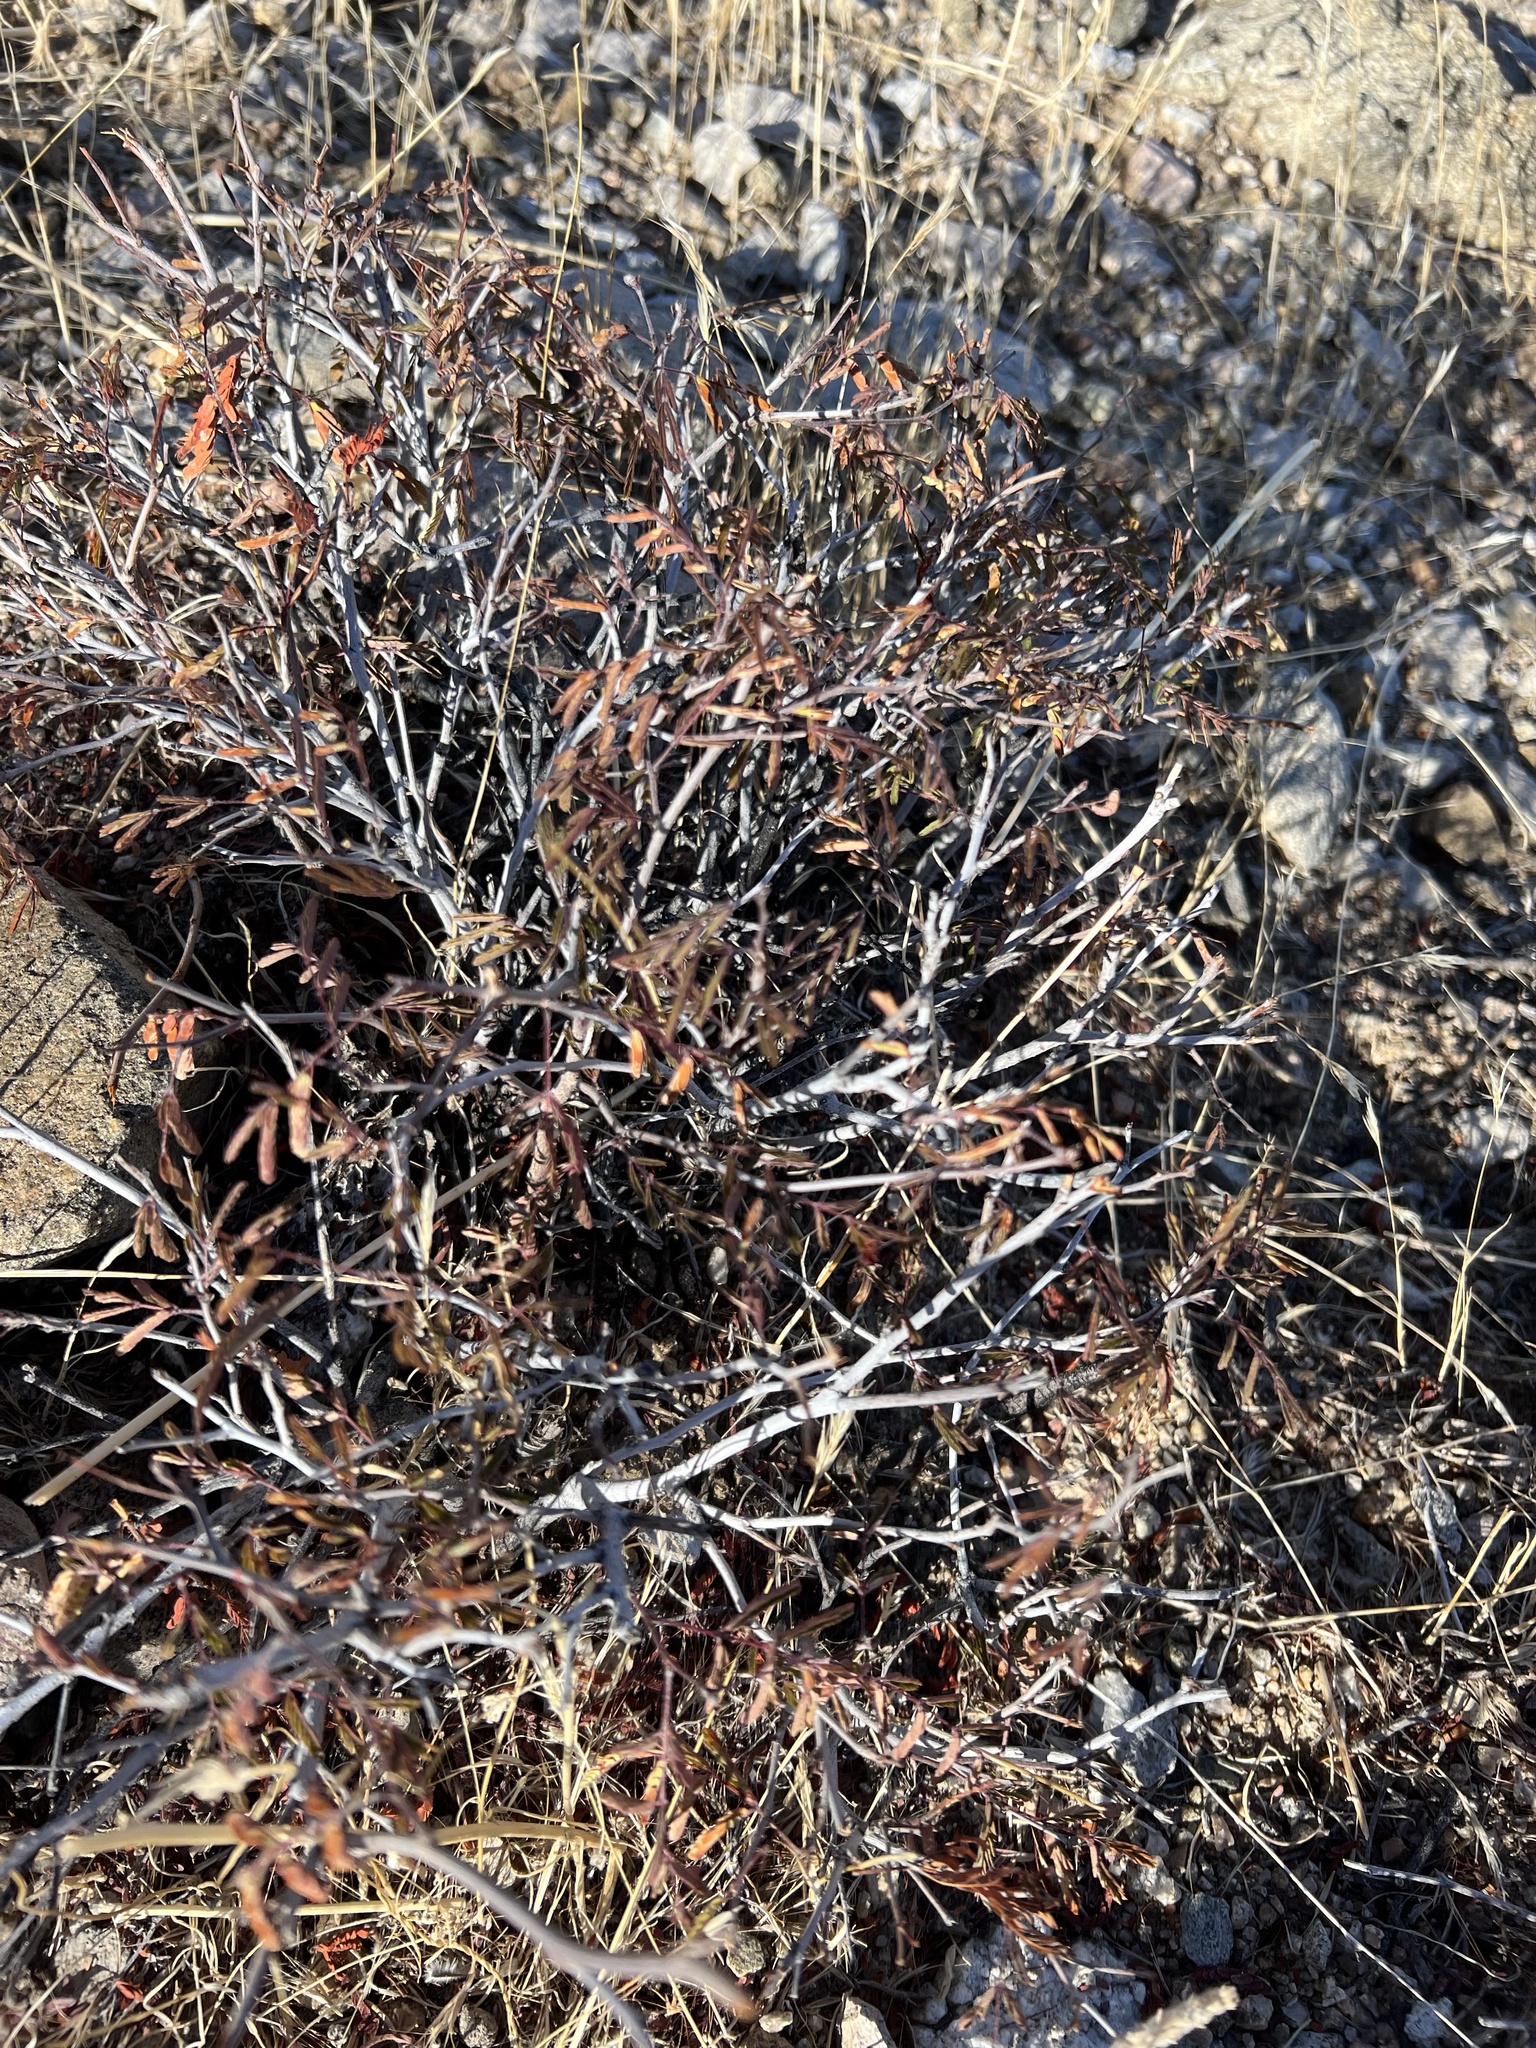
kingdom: Plantae
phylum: Tracheophyta
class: Magnoliopsida
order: Fabales
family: Fabaceae
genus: Calliandra
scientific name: Calliandra eriophylla
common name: Fairy-duster
